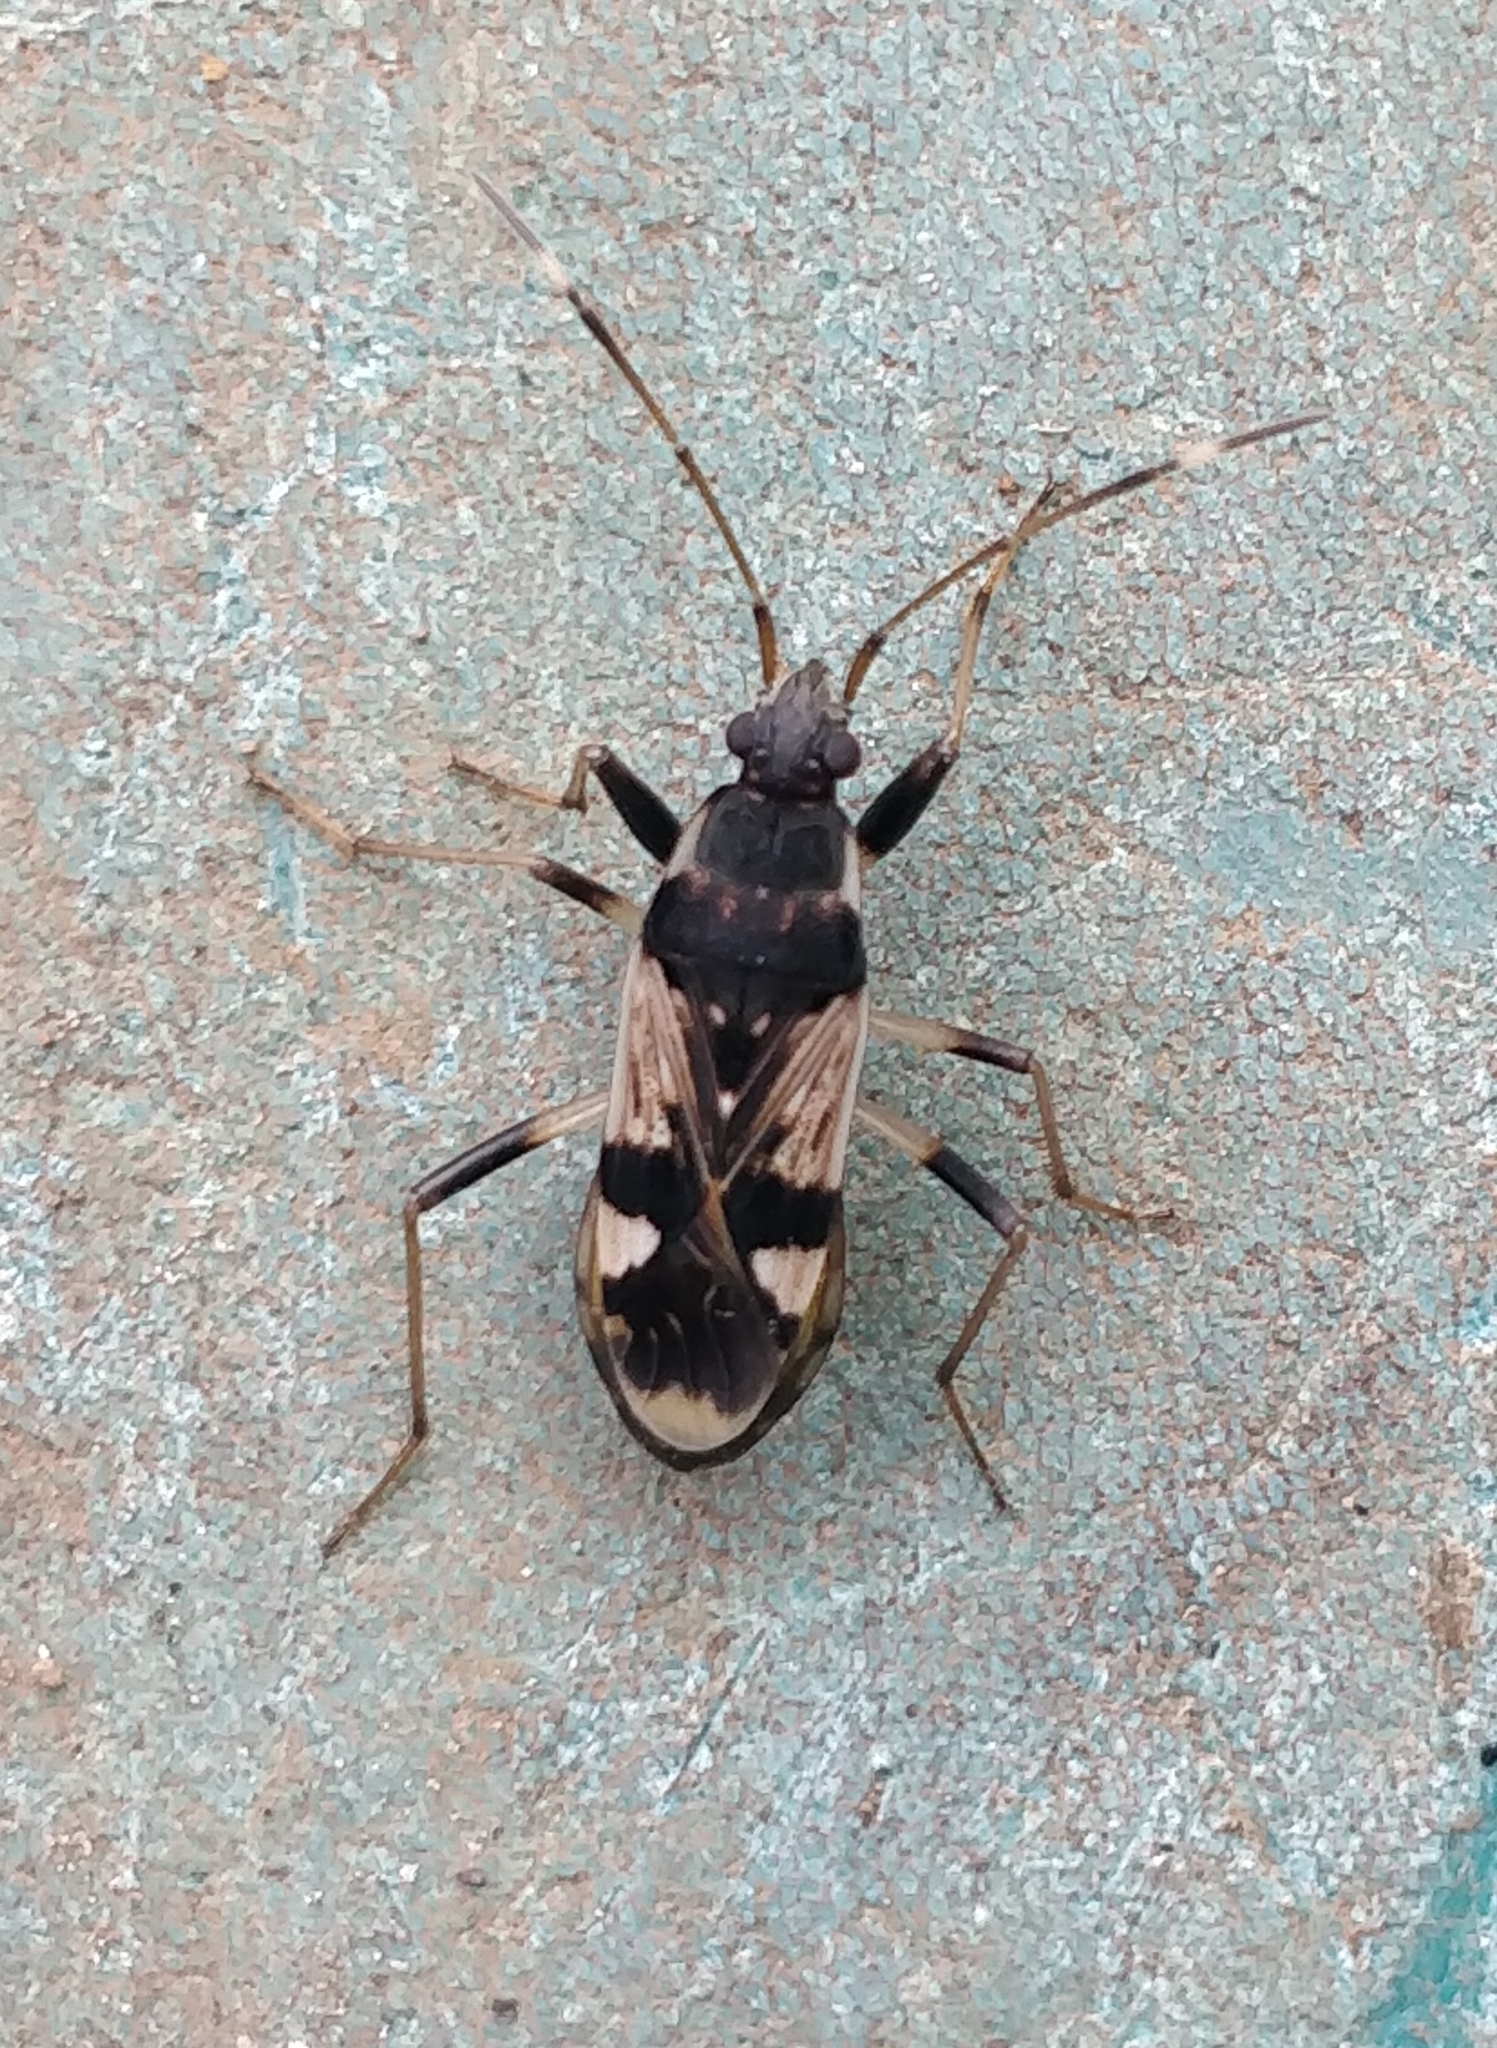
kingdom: Animalia
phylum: Arthropoda
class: Insecta
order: Hemiptera
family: Rhyparochromidae
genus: Dieuches
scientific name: Dieuches schmitzi
